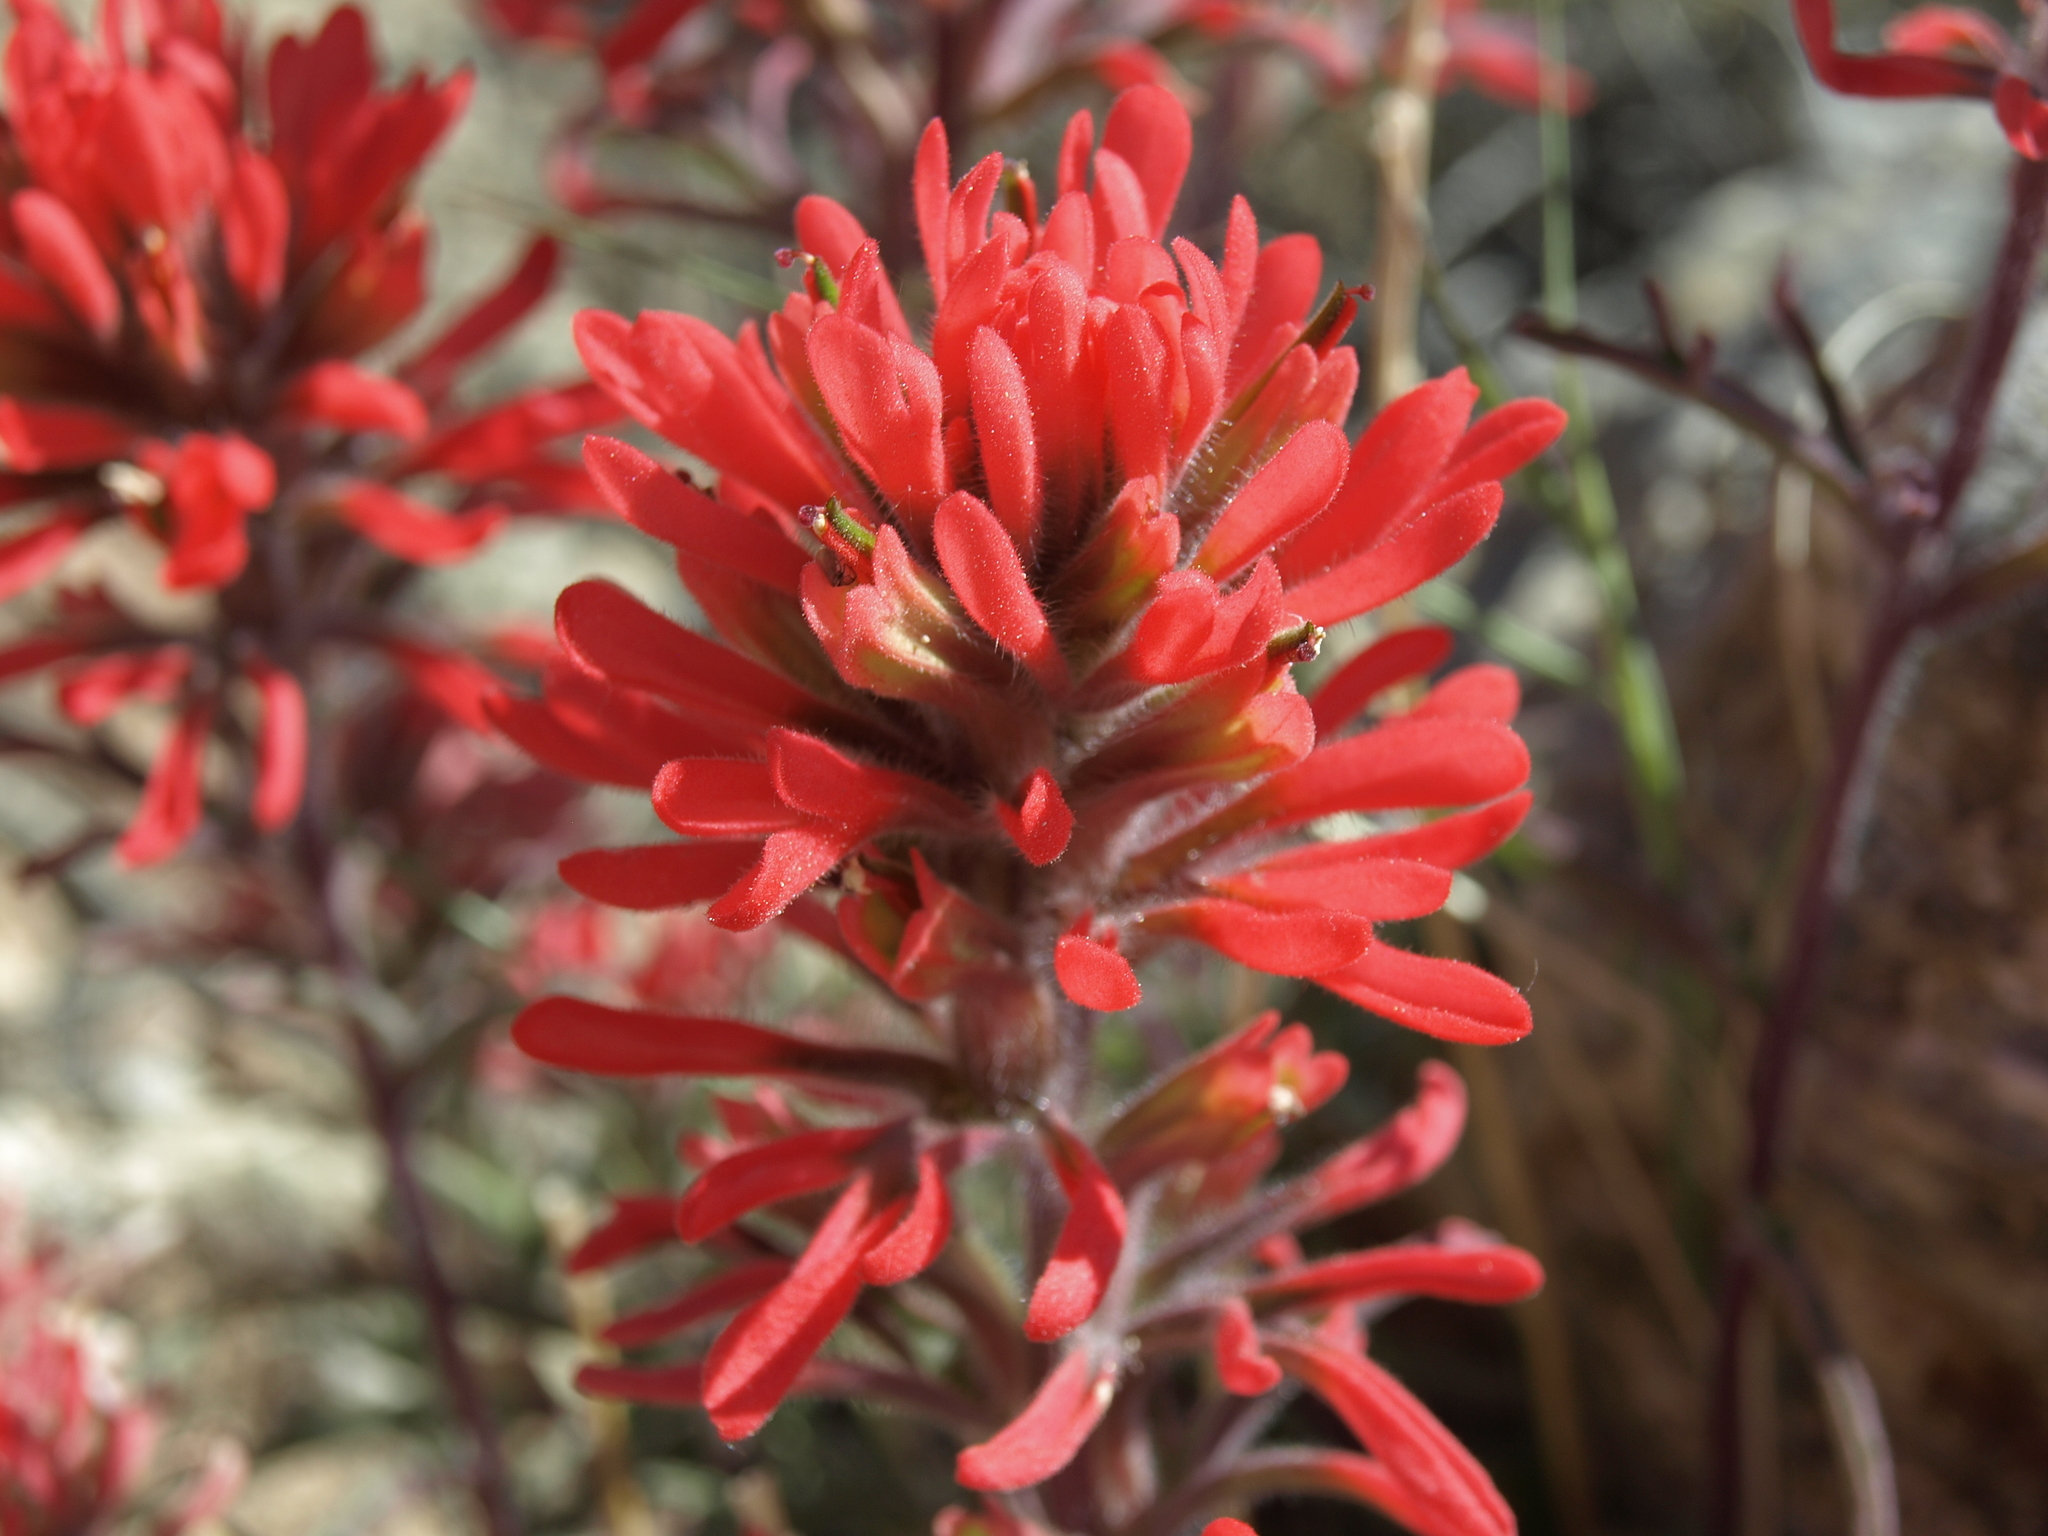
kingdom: Plantae
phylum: Tracheophyta
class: Magnoliopsida
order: Lamiales
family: Orobanchaceae
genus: Castilleja
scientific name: Castilleja chromosa
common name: Desert paintbrush
